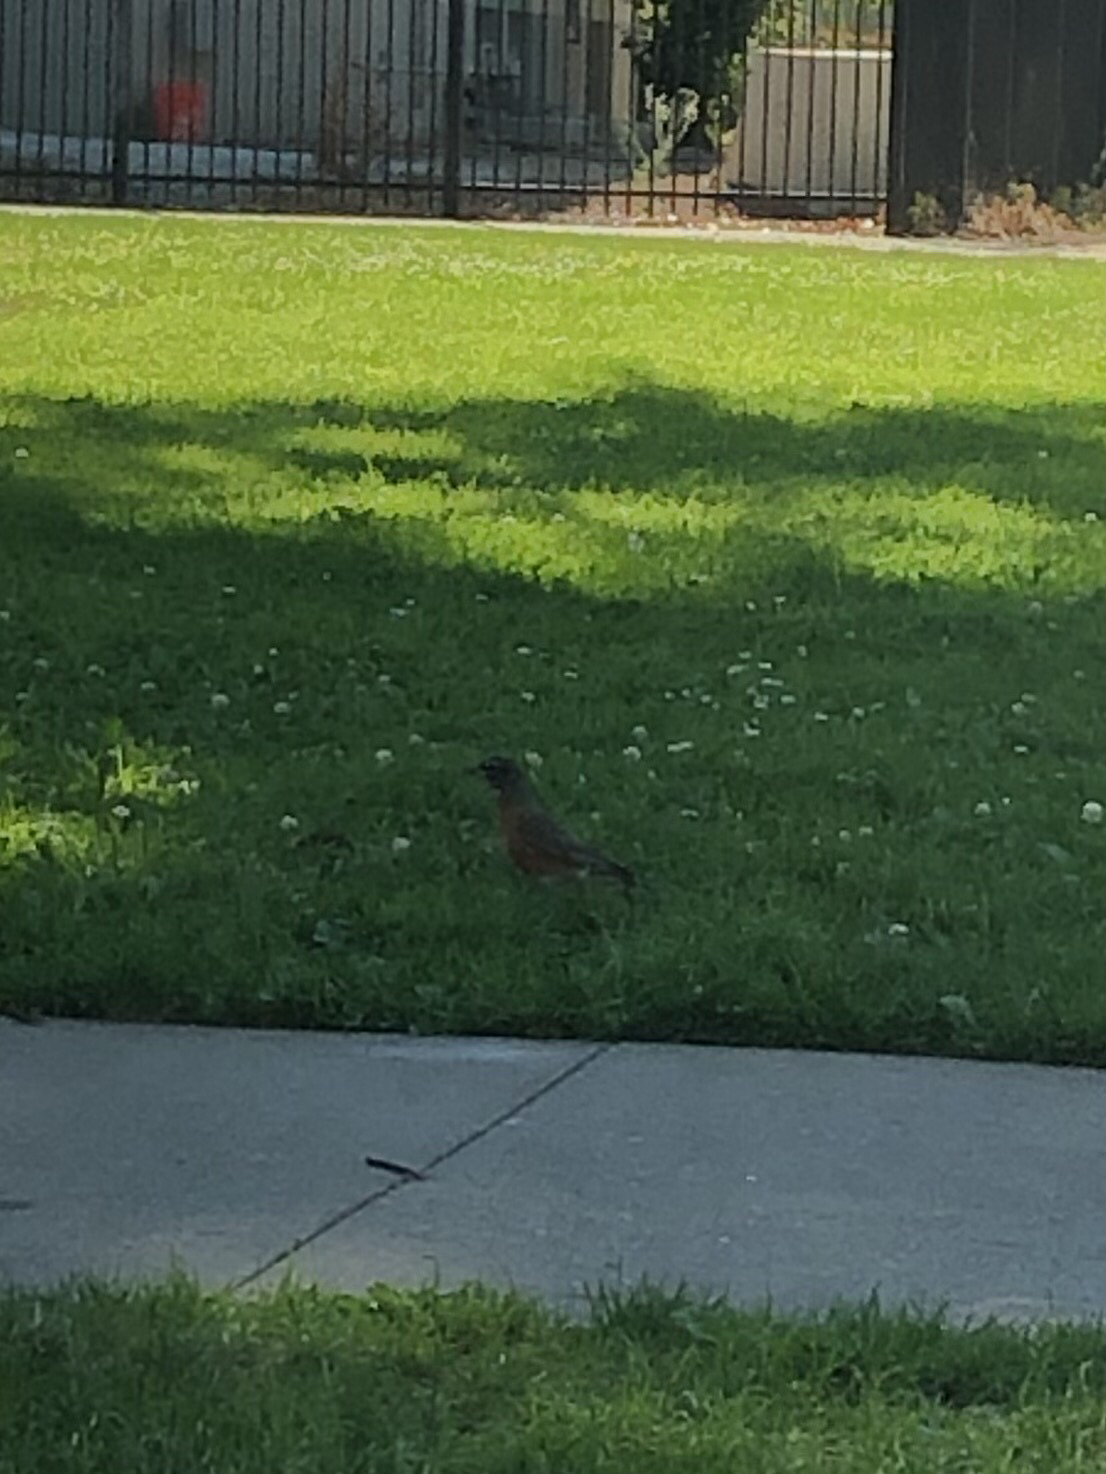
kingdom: Animalia
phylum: Chordata
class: Aves
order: Passeriformes
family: Turdidae
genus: Turdus
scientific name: Turdus migratorius
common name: American robin
